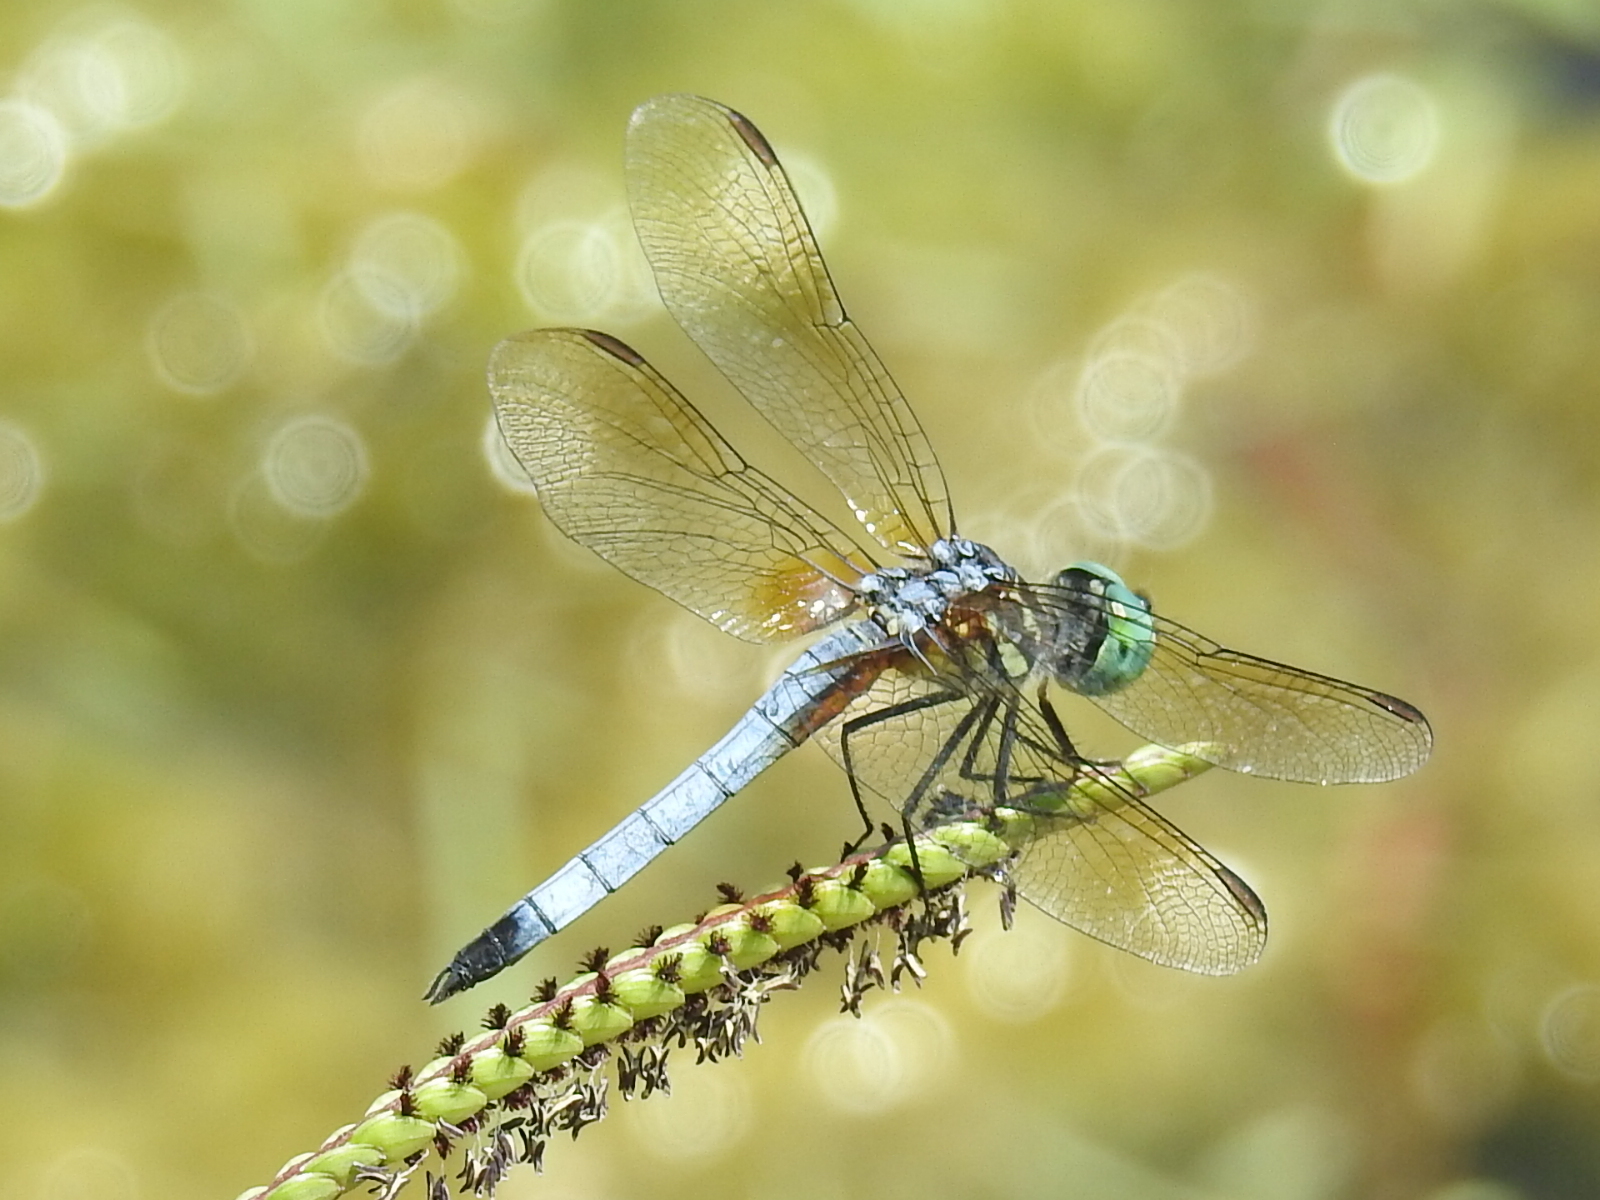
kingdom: Animalia
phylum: Arthropoda
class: Insecta
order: Odonata
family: Libellulidae
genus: Pachydiplax
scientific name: Pachydiplax longipennis
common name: Blue dasher
